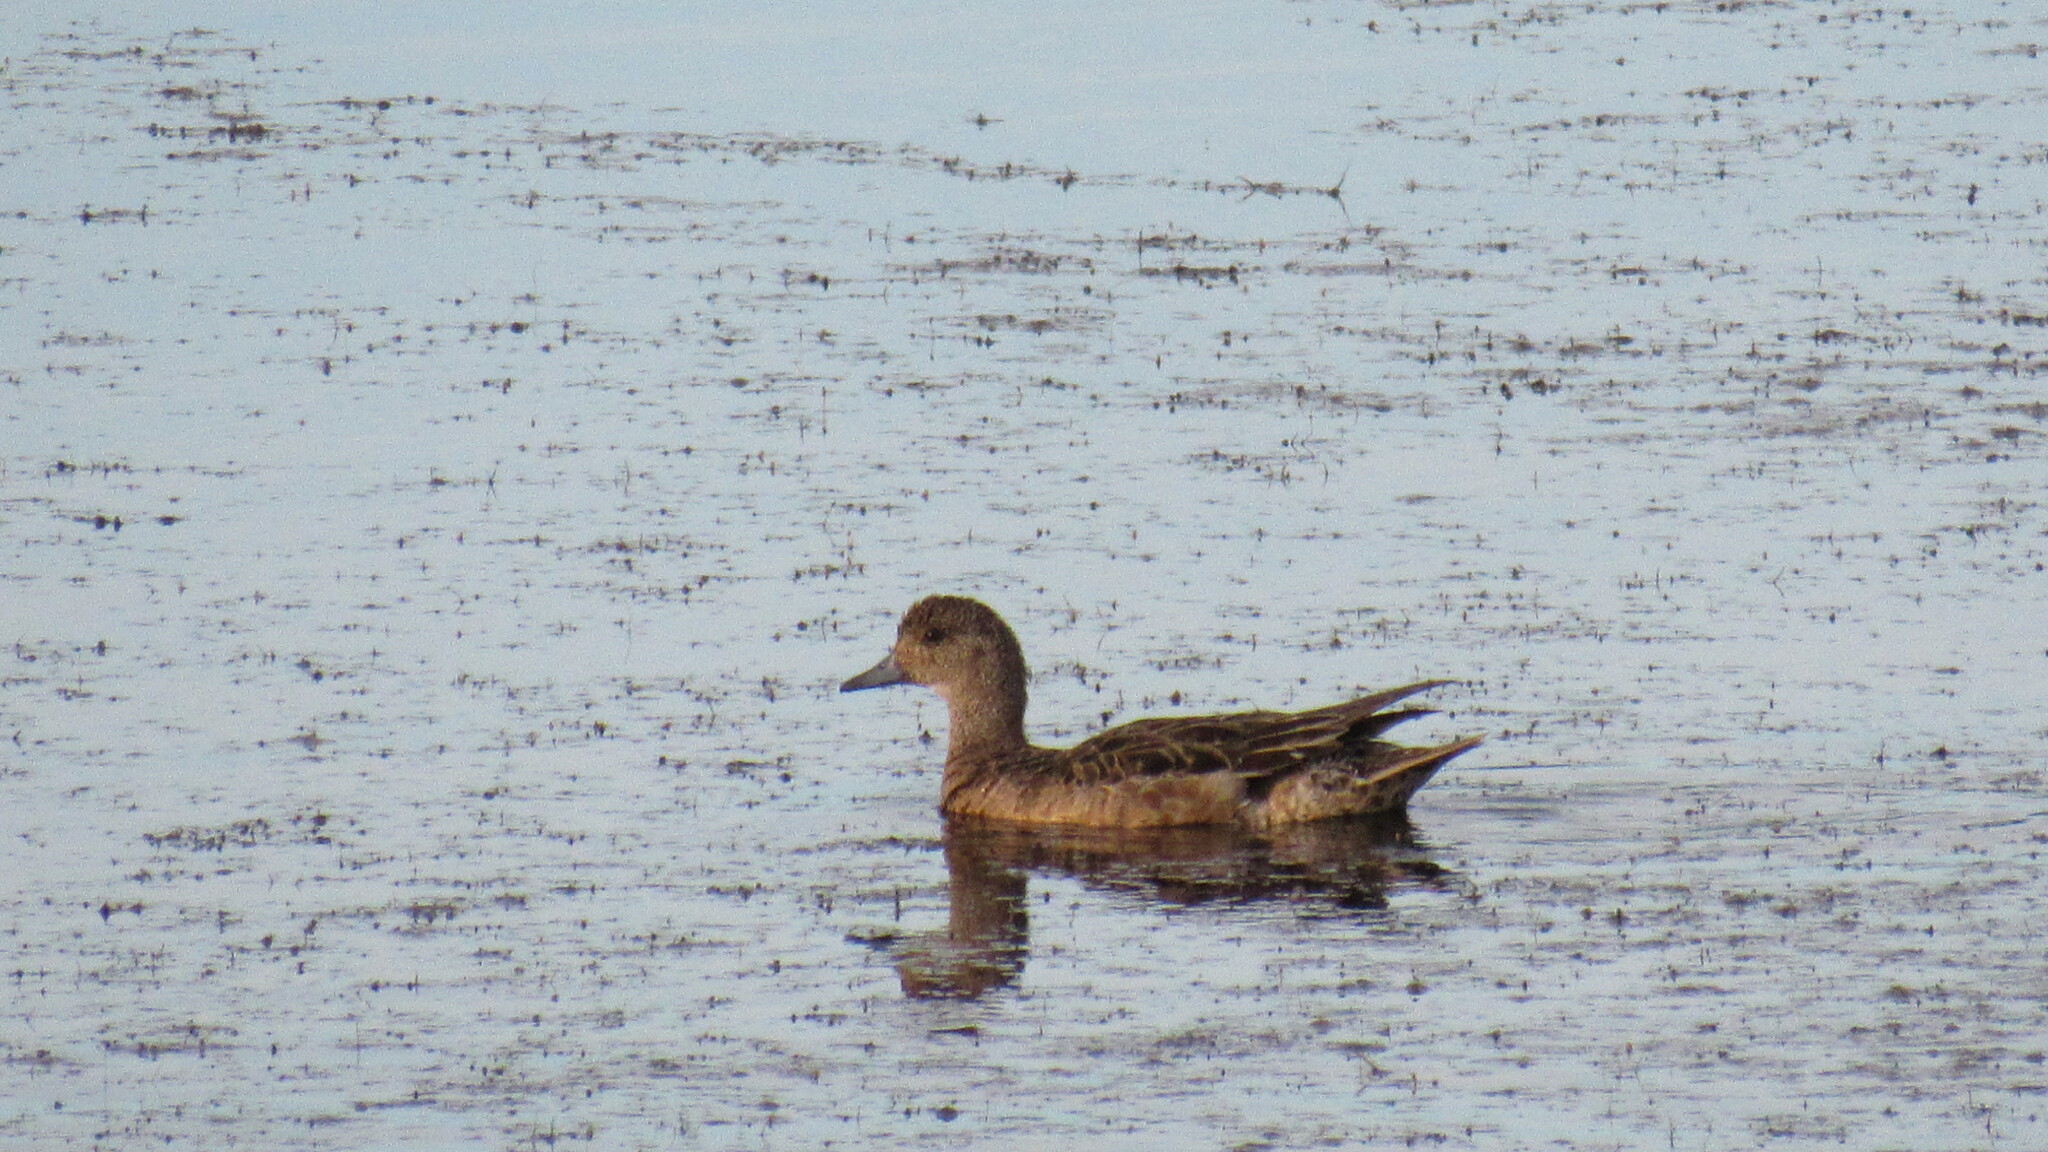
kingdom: Animalia
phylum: Chordata
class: Aves
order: Anseriformes
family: Anatidae
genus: Mareca
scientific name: Mareca penelope
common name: Eurasian wigeon
